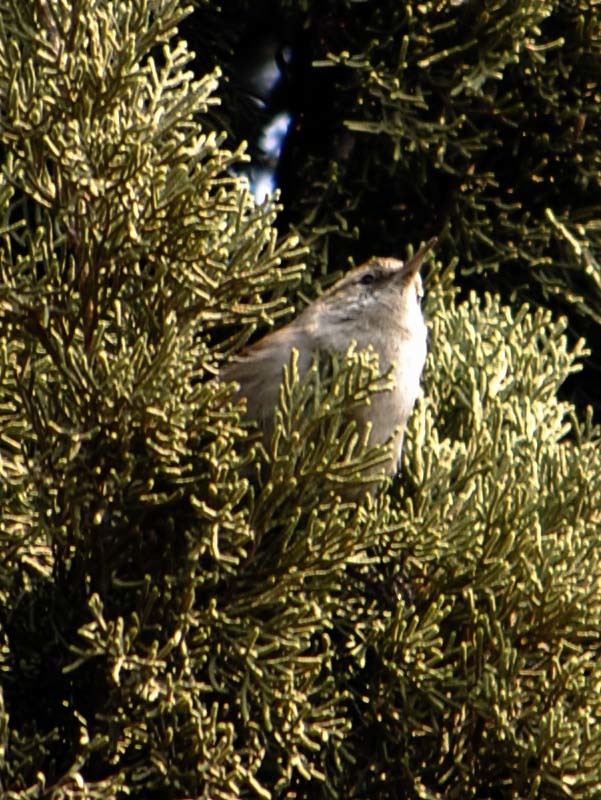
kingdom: Animalia
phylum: Chordata
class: Aves
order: Passeriformes
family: Troglodytidae
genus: Thryomanes
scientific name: Thryomanes bewickii
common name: Bewick's wren
